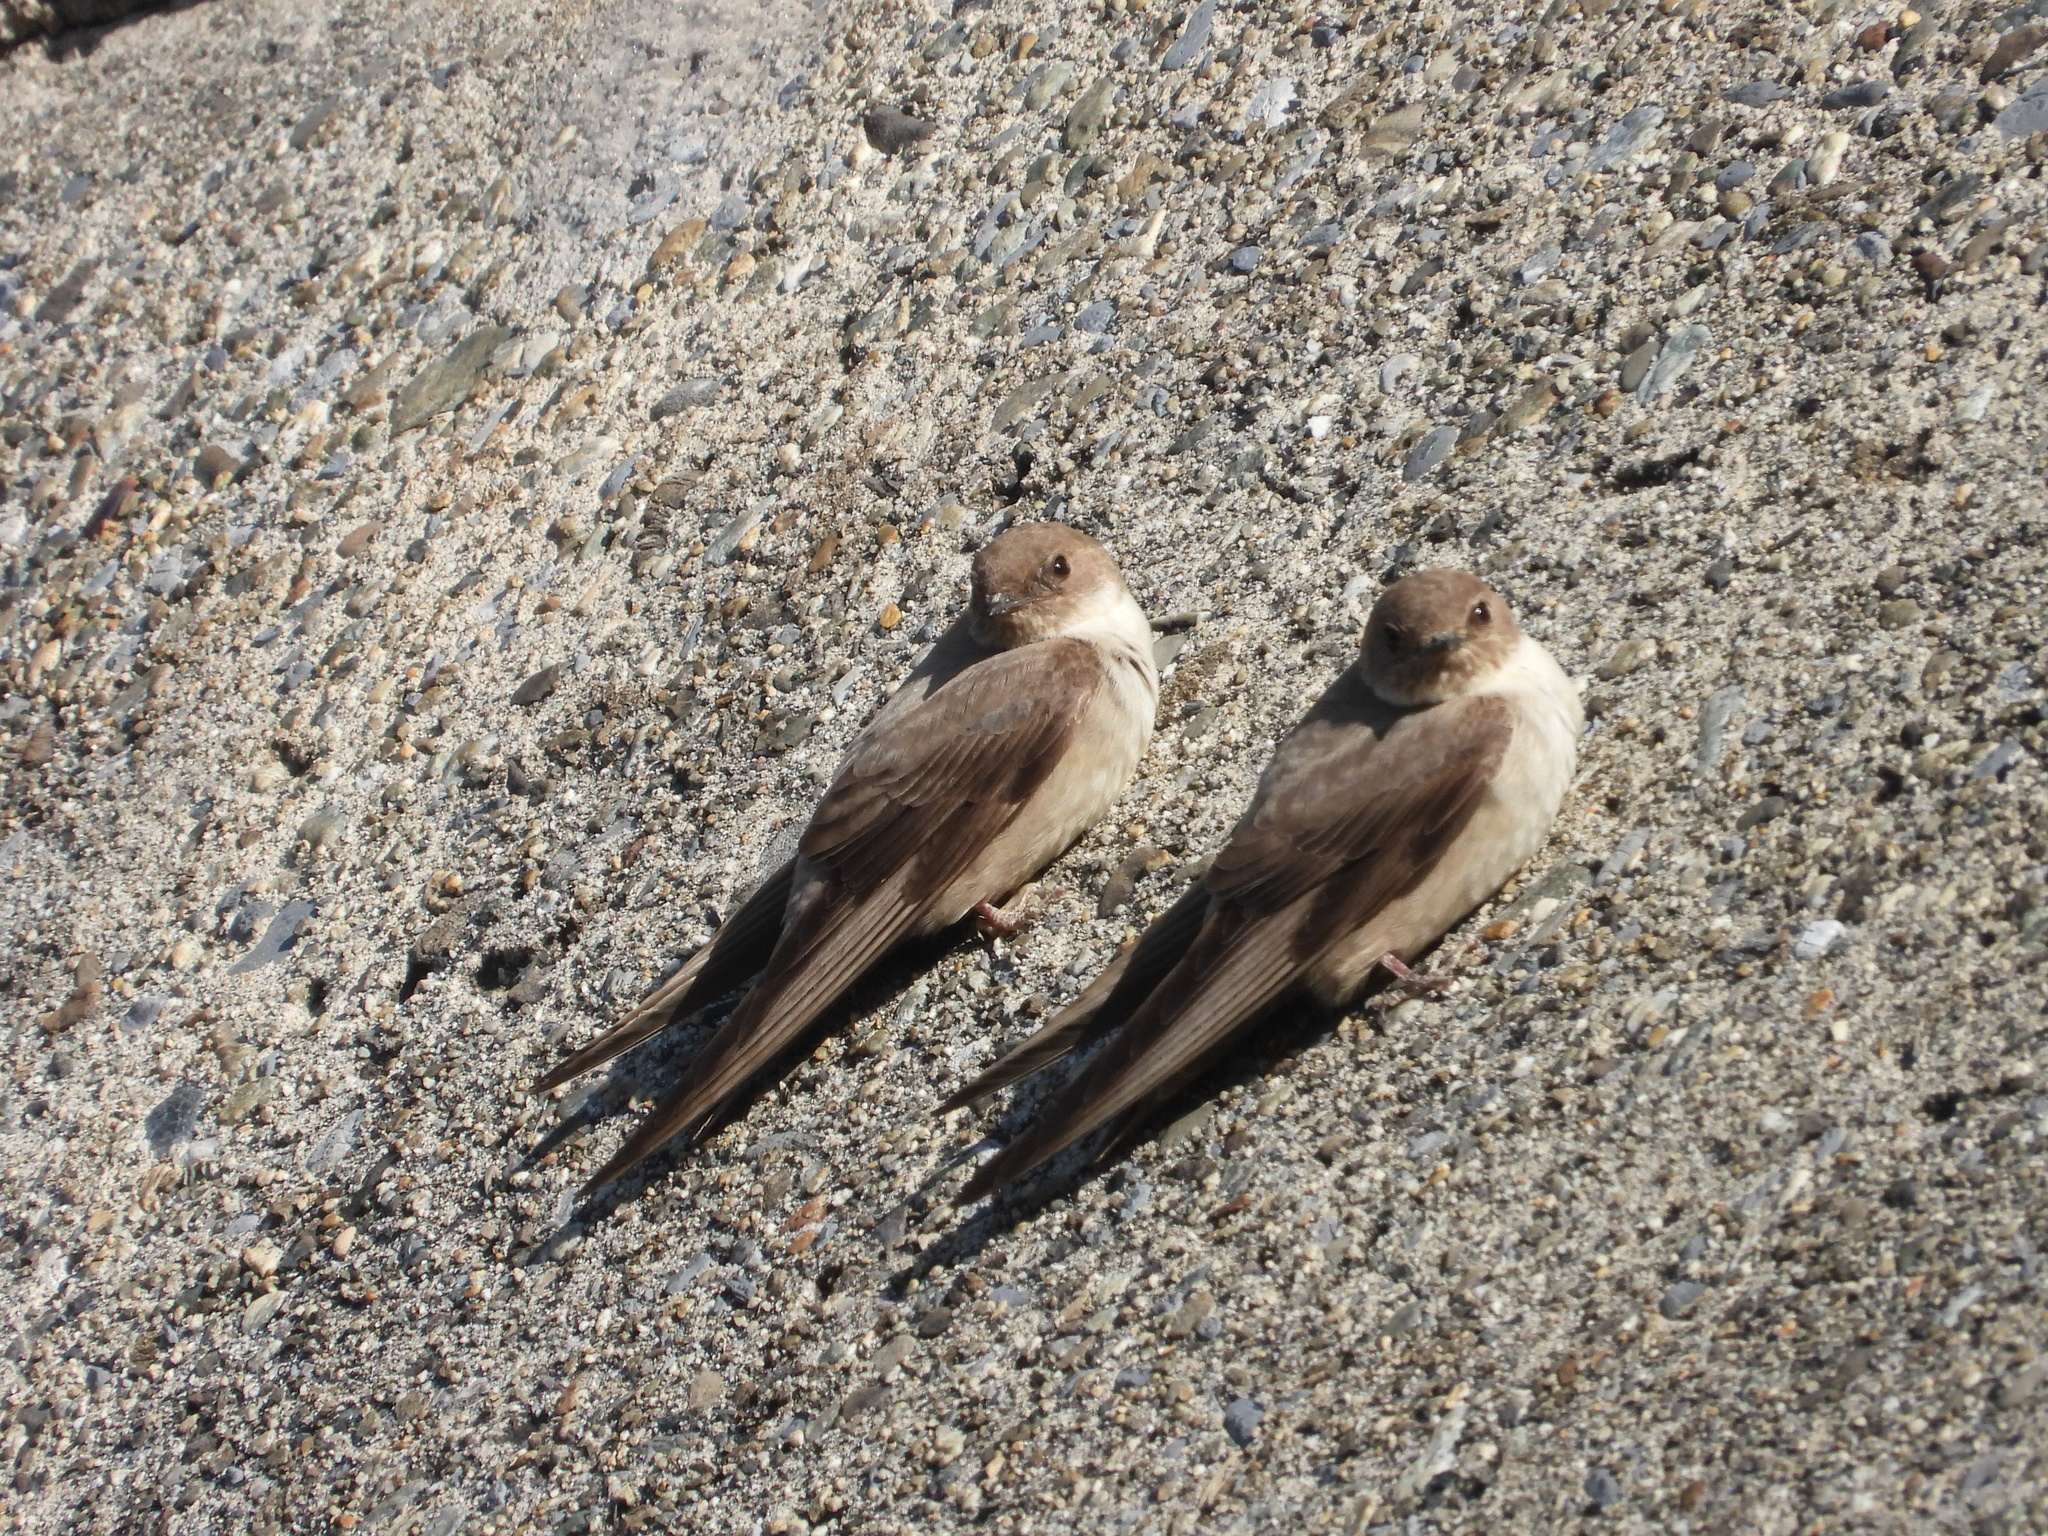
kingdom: Animalia
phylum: Chordata
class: Aves
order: Passeriformes
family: Hirundinidae
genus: Ptyonoprogne
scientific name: Ptyonoprogne rupestris
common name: Eurasian crag martin
